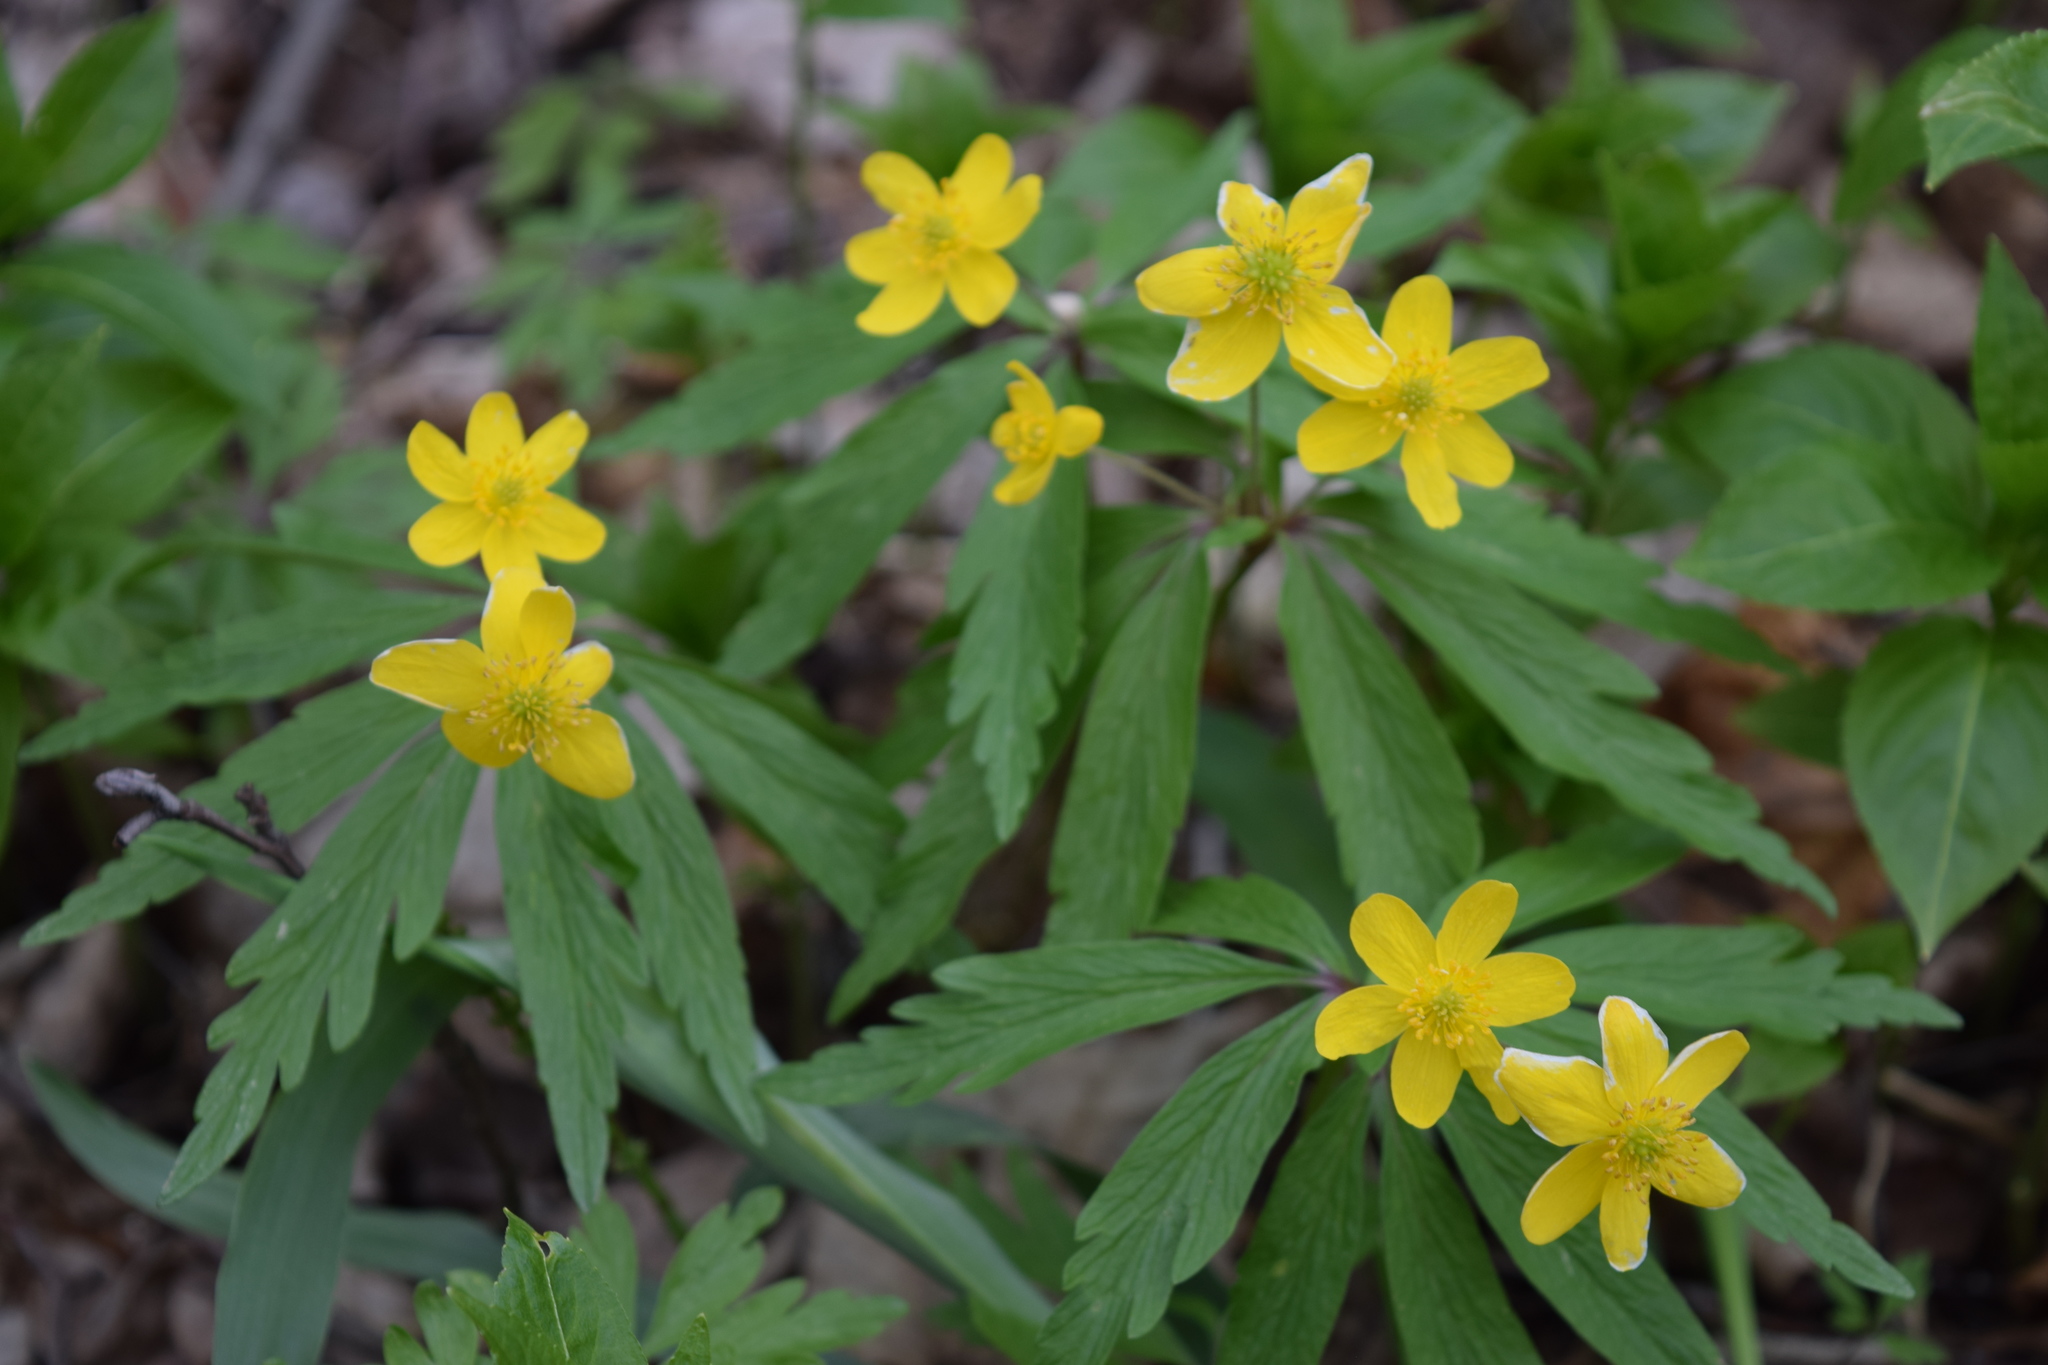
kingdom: Plantae
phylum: Tracheophyta
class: Magnoliopsida
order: Ranunculales
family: Ranunculaceae
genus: Anemone
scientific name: Anemone ranunculoides
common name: Yellow anemone
